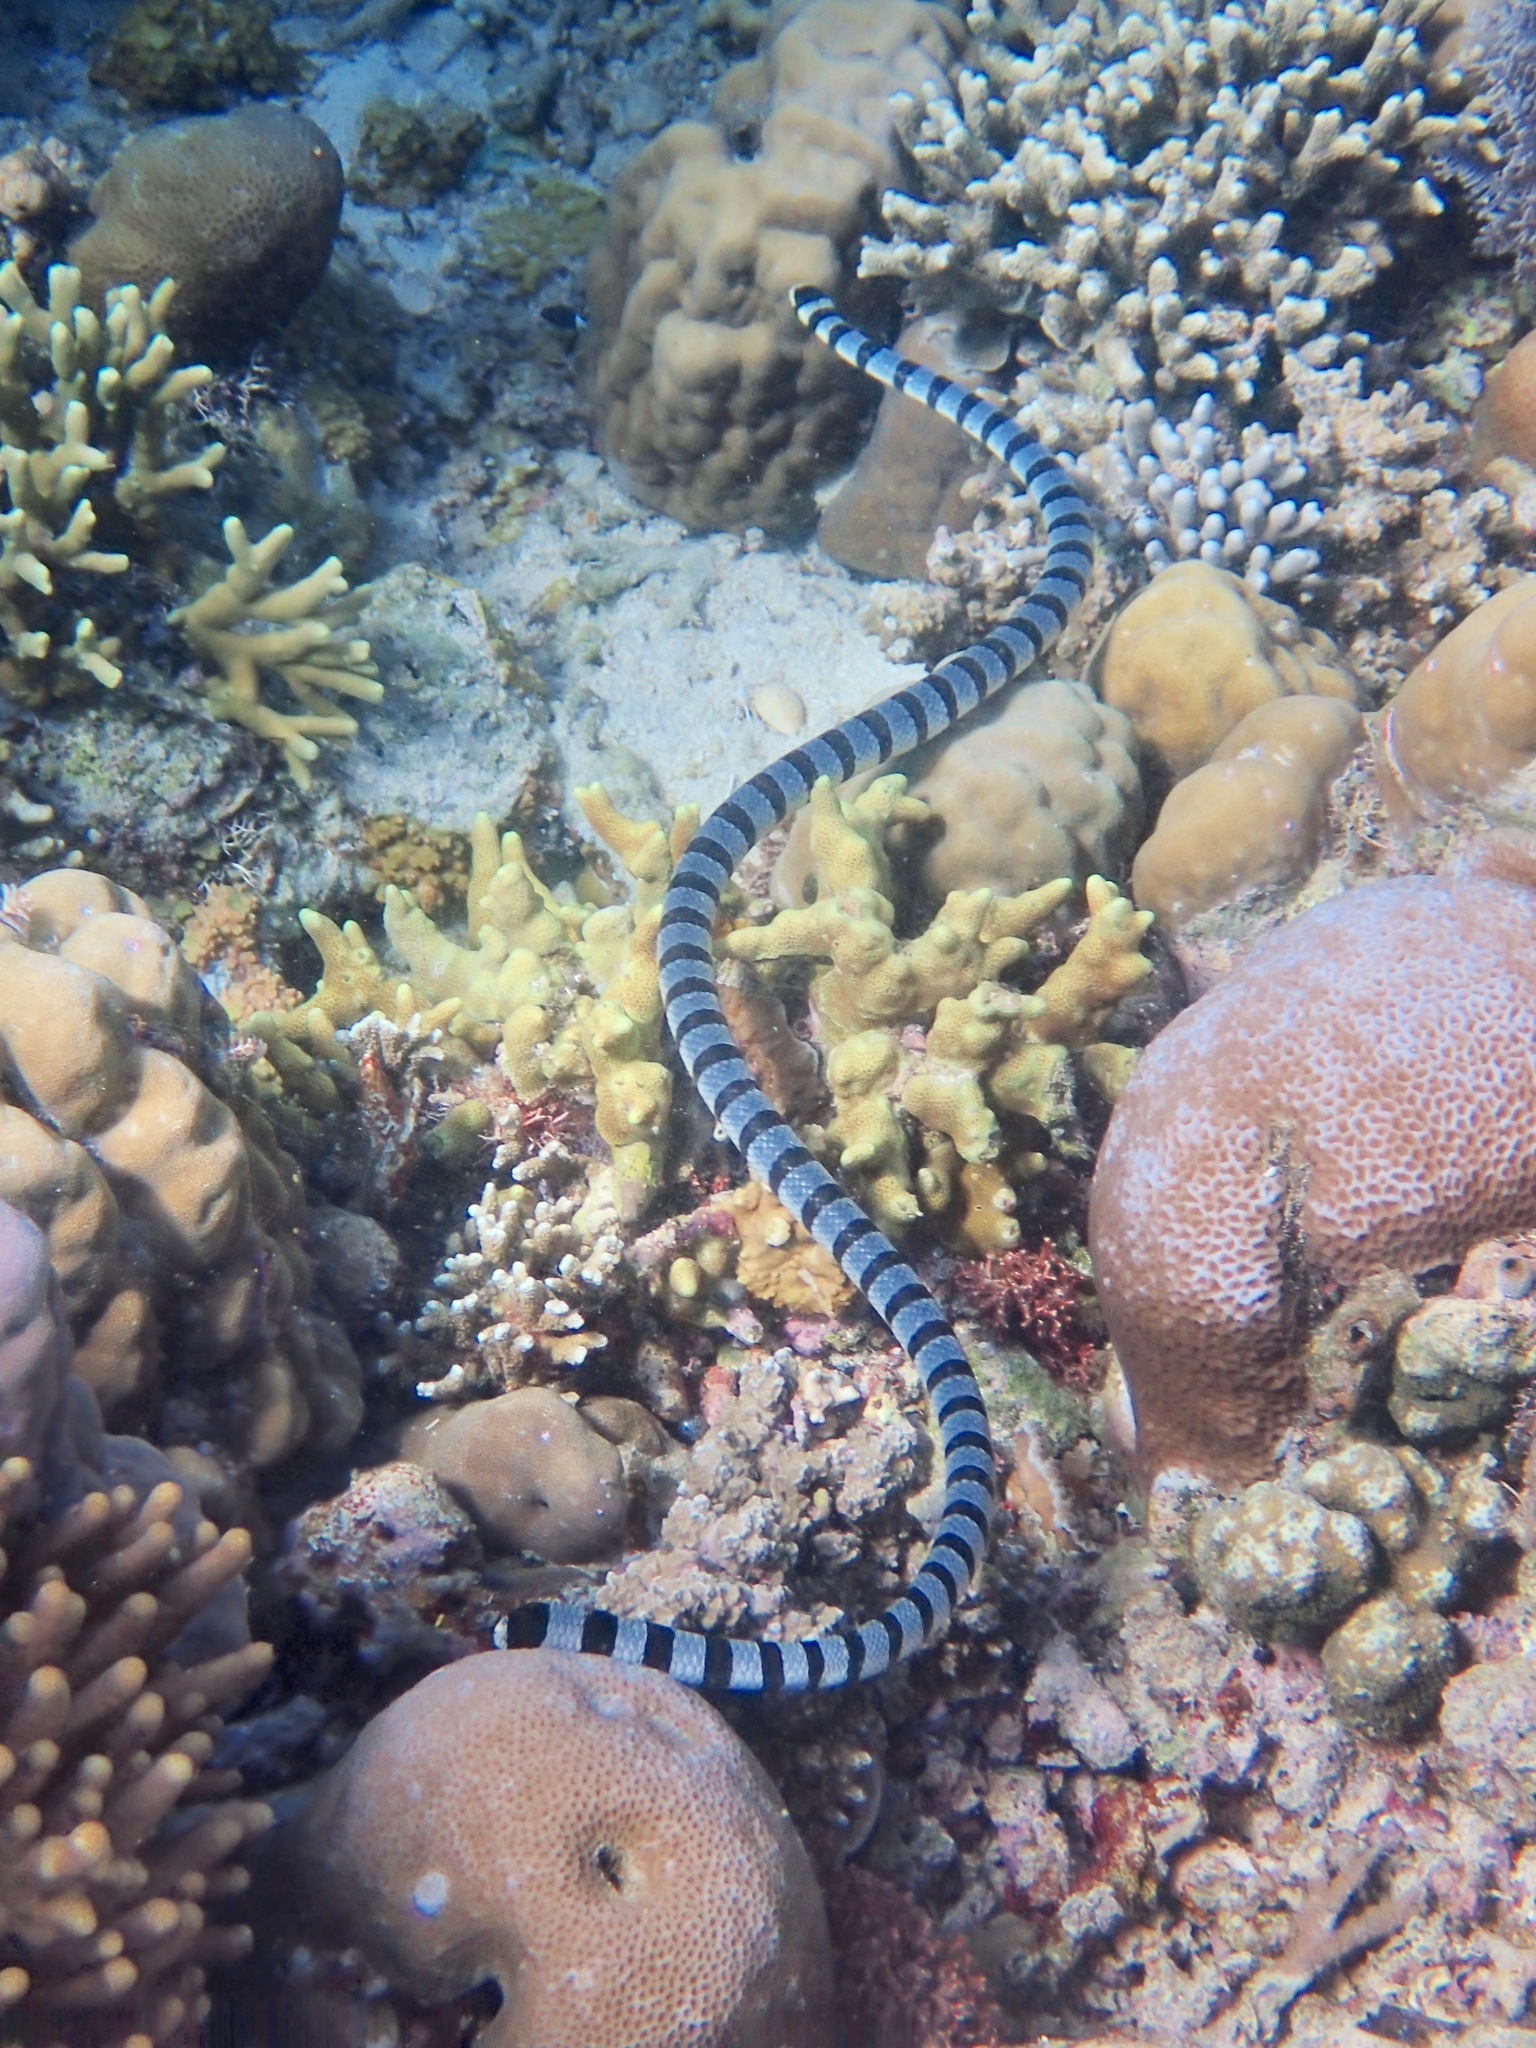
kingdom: Animalia
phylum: Chordata
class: Squamata
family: Elapidae
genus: Laticauda
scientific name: Laticauda colubrina
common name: Yellow-lipped sea krait
